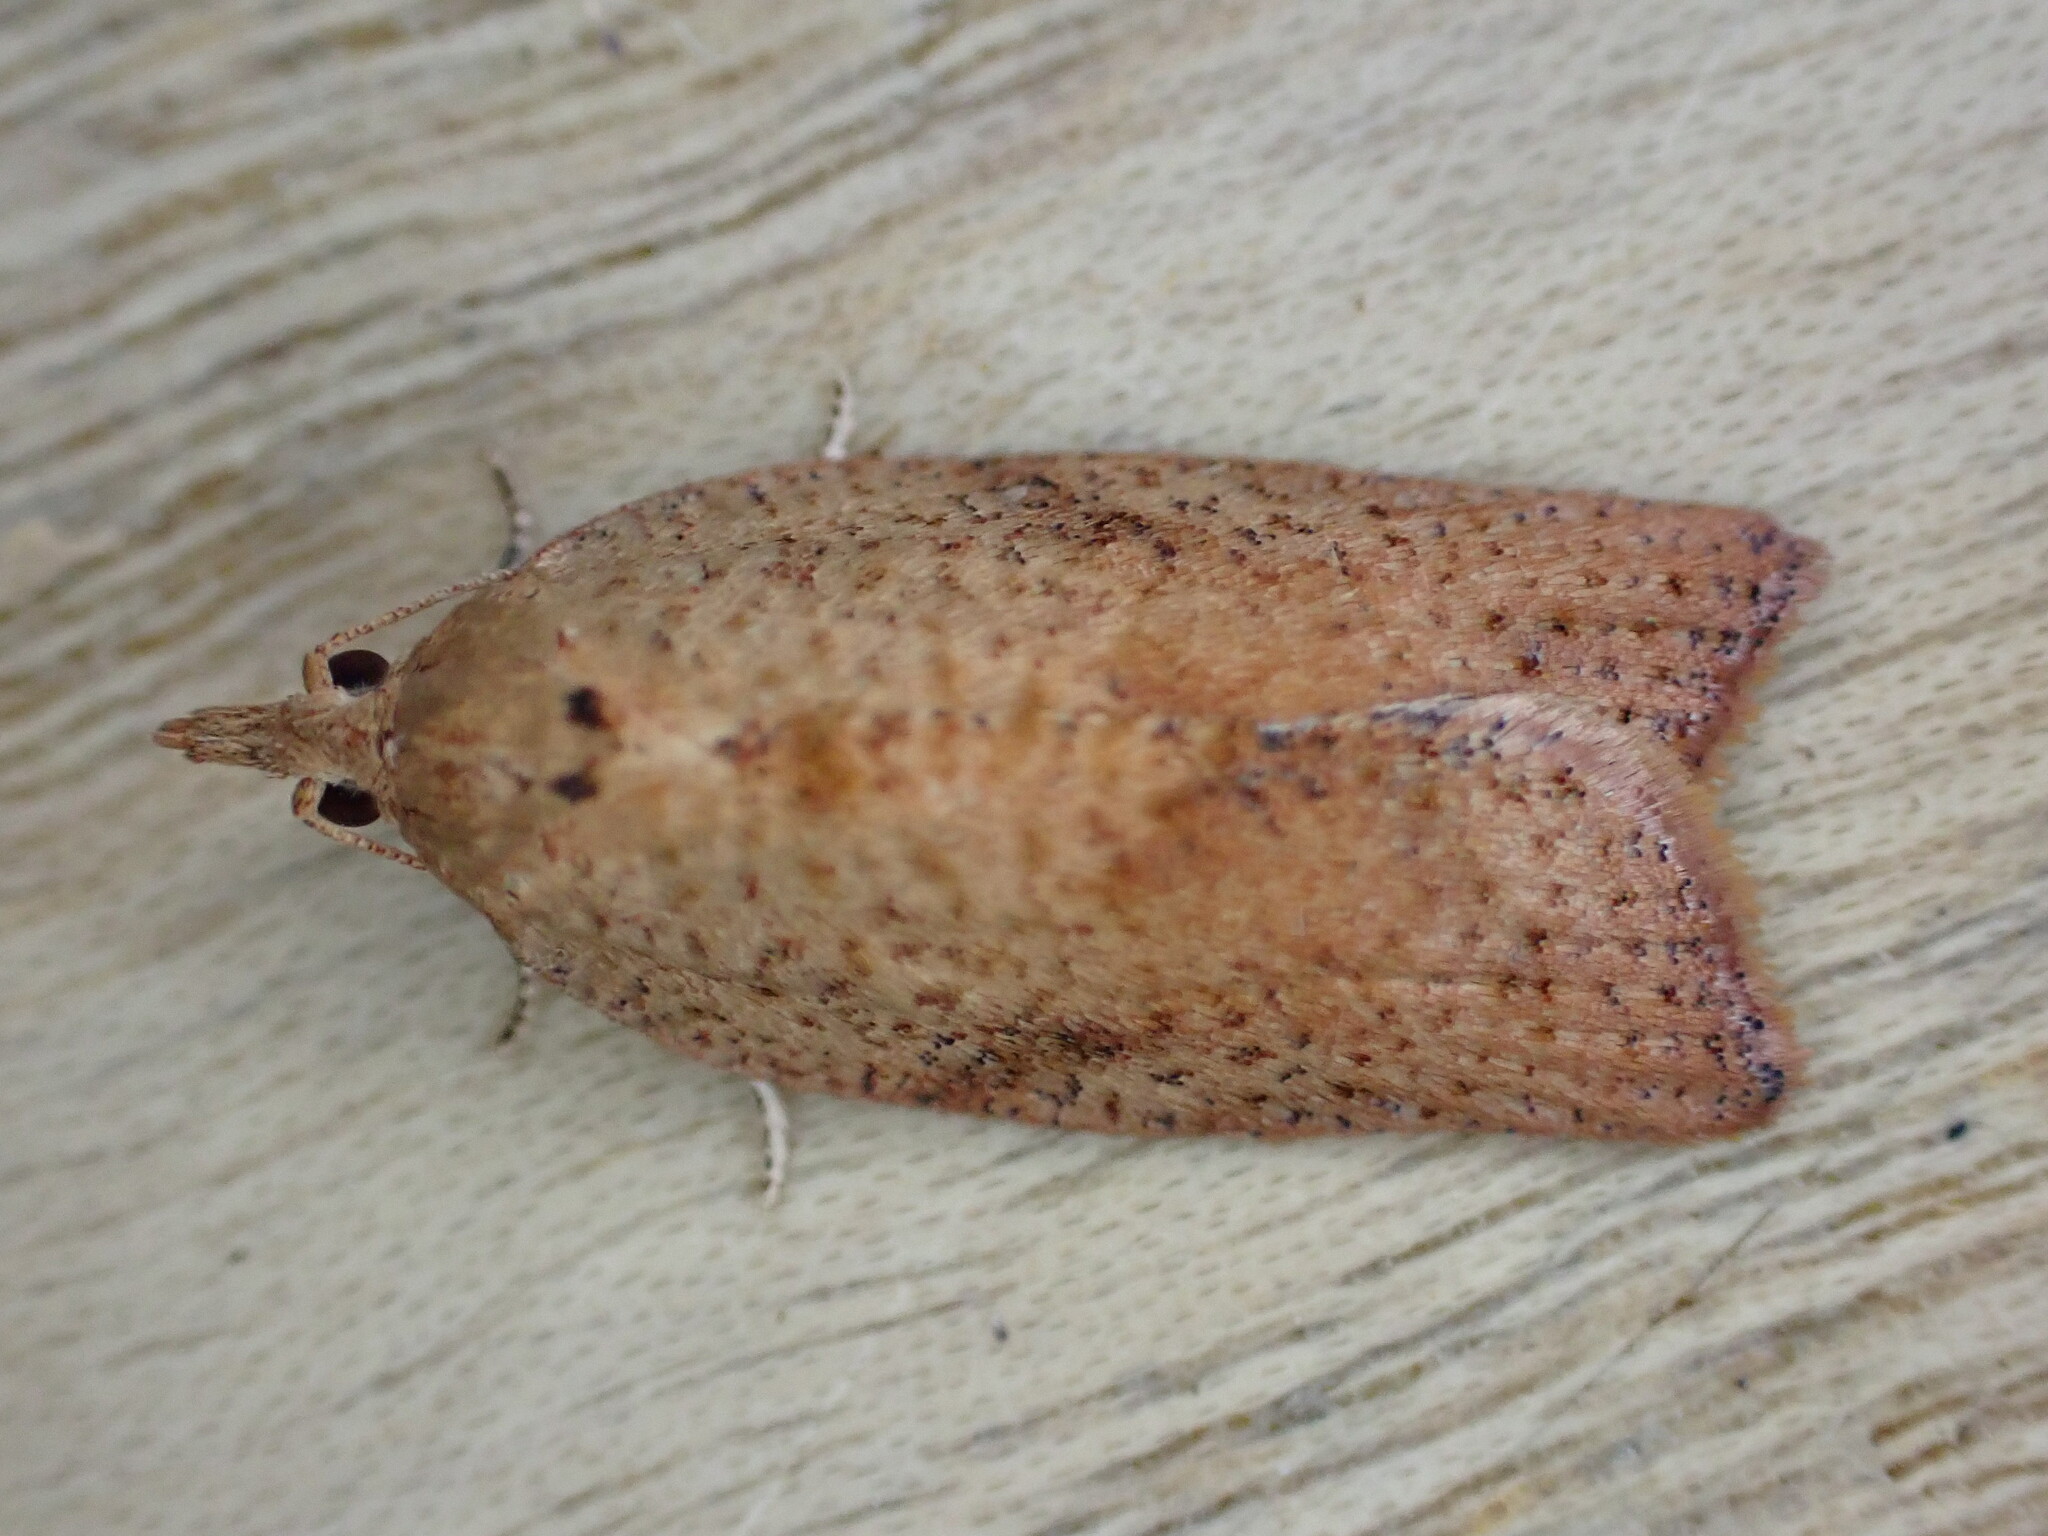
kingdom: Animalia
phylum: Arthropoda
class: Insecta
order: Lepidoptera
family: Tortricidae
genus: Epiphyas
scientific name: Epiphyas postvittana
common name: Light brown apple moth
